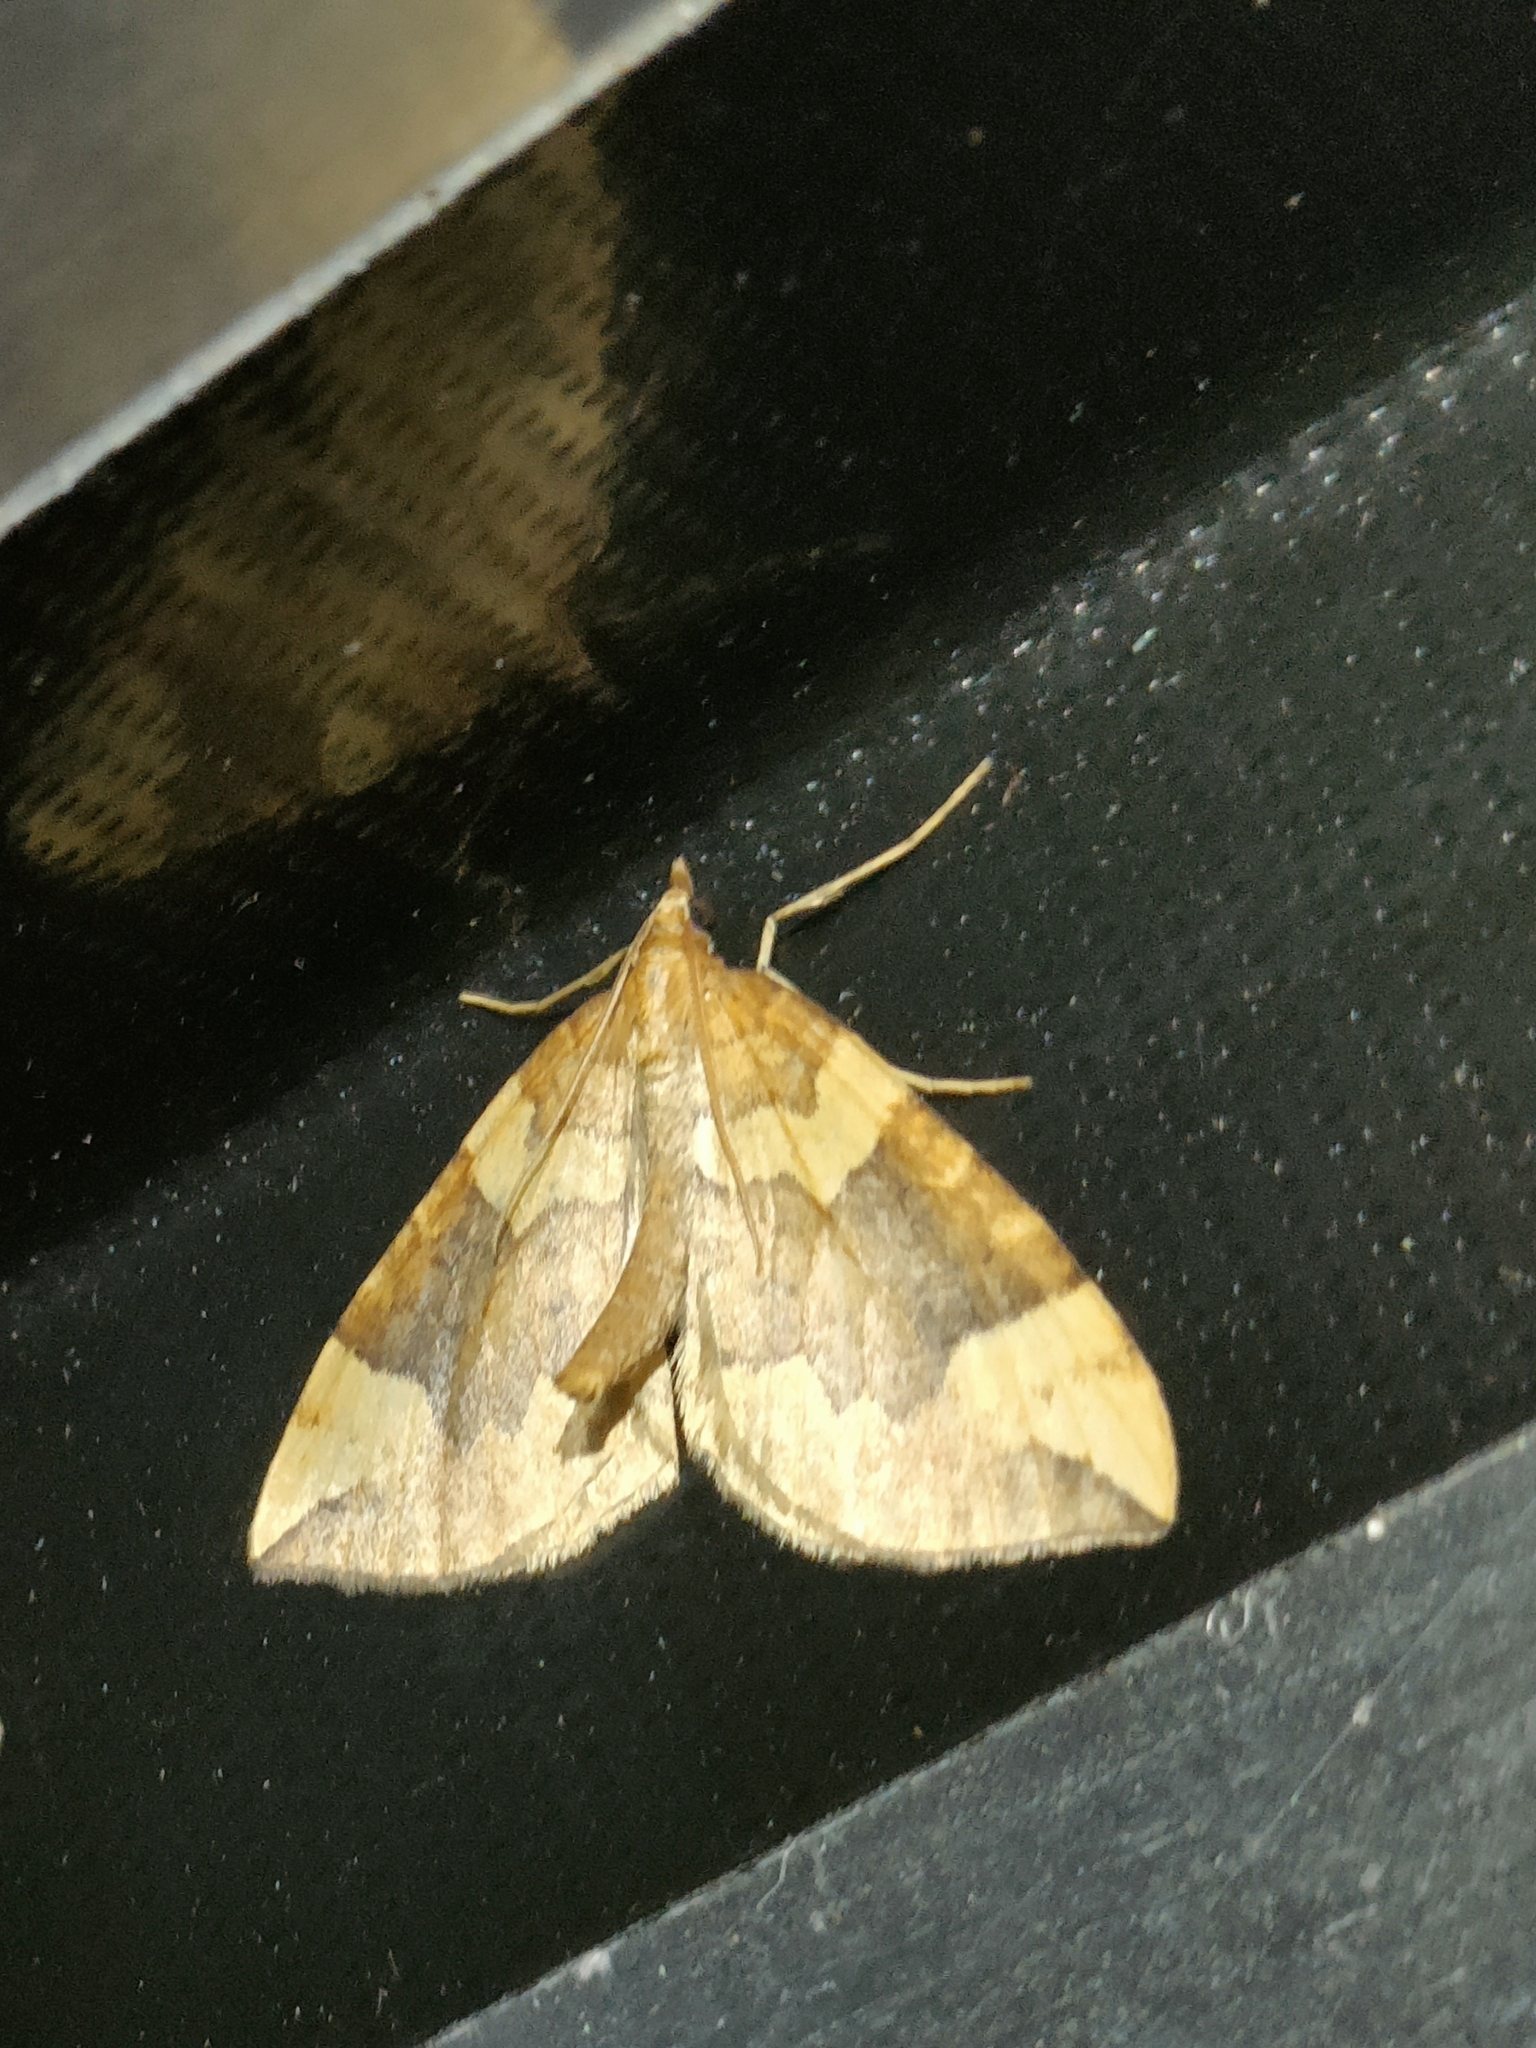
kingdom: Animalia
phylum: Arthropoda
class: Insecta
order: Lepidoptera
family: Geometridae
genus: Eulithis
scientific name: Eulithis populata
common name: Northern spinach
